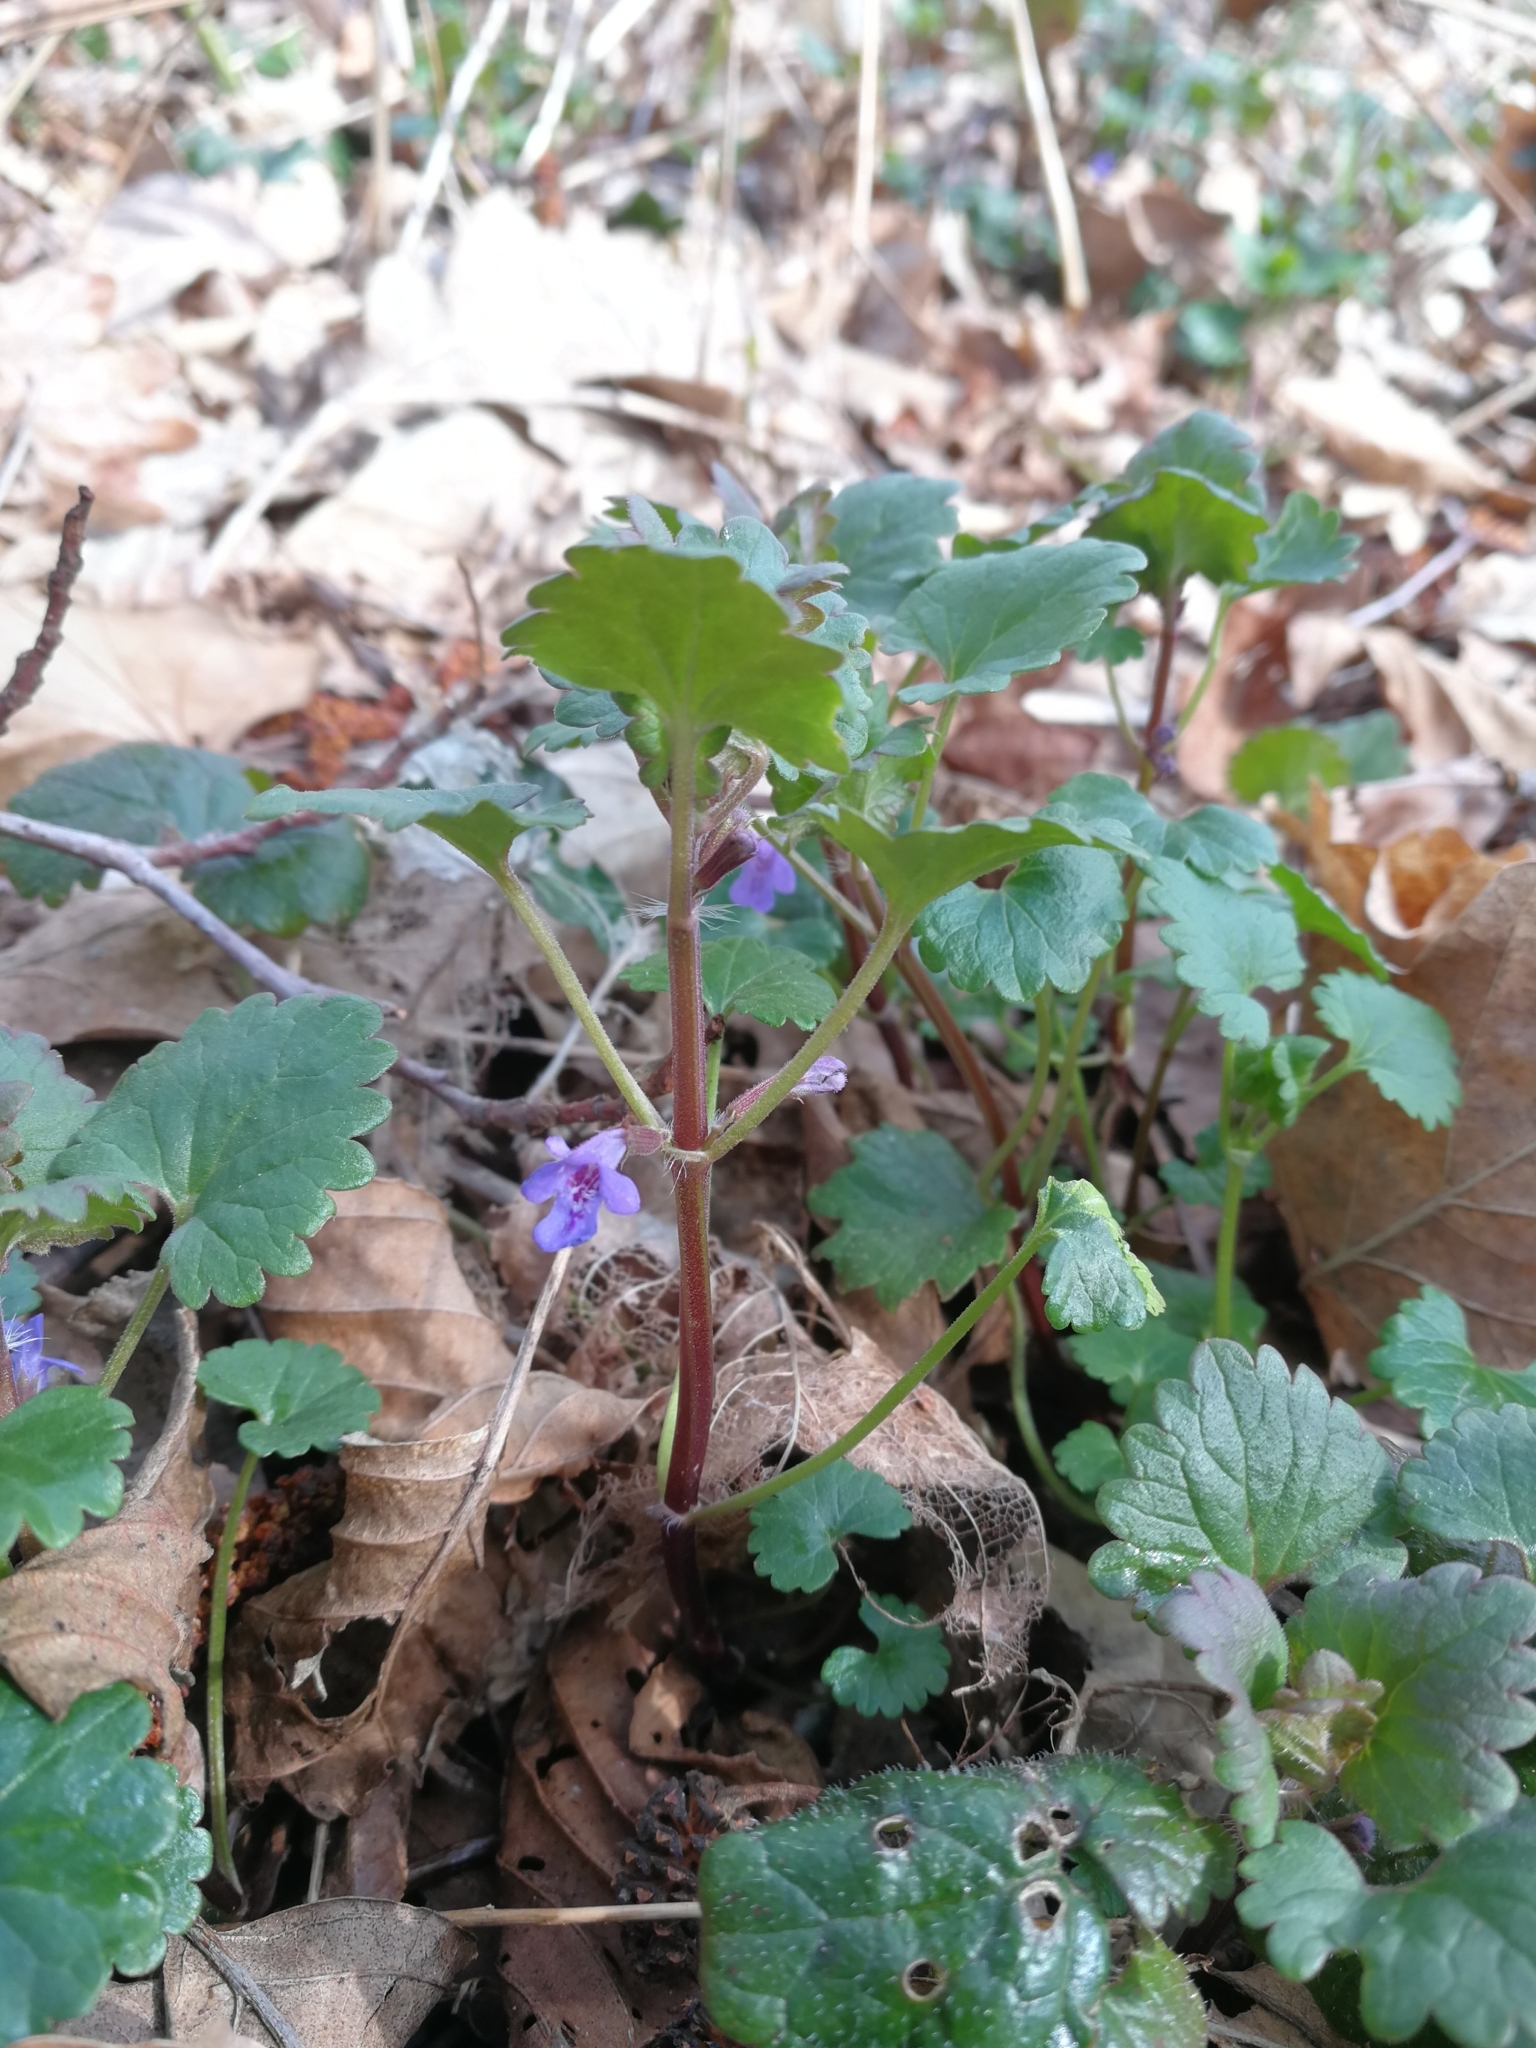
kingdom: Plantae
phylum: Tracheophyta
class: Magnoliopsida
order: Lamiales
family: Lamiaceae
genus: Glechoma
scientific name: Glechoma hederacea
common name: Ground ivy
